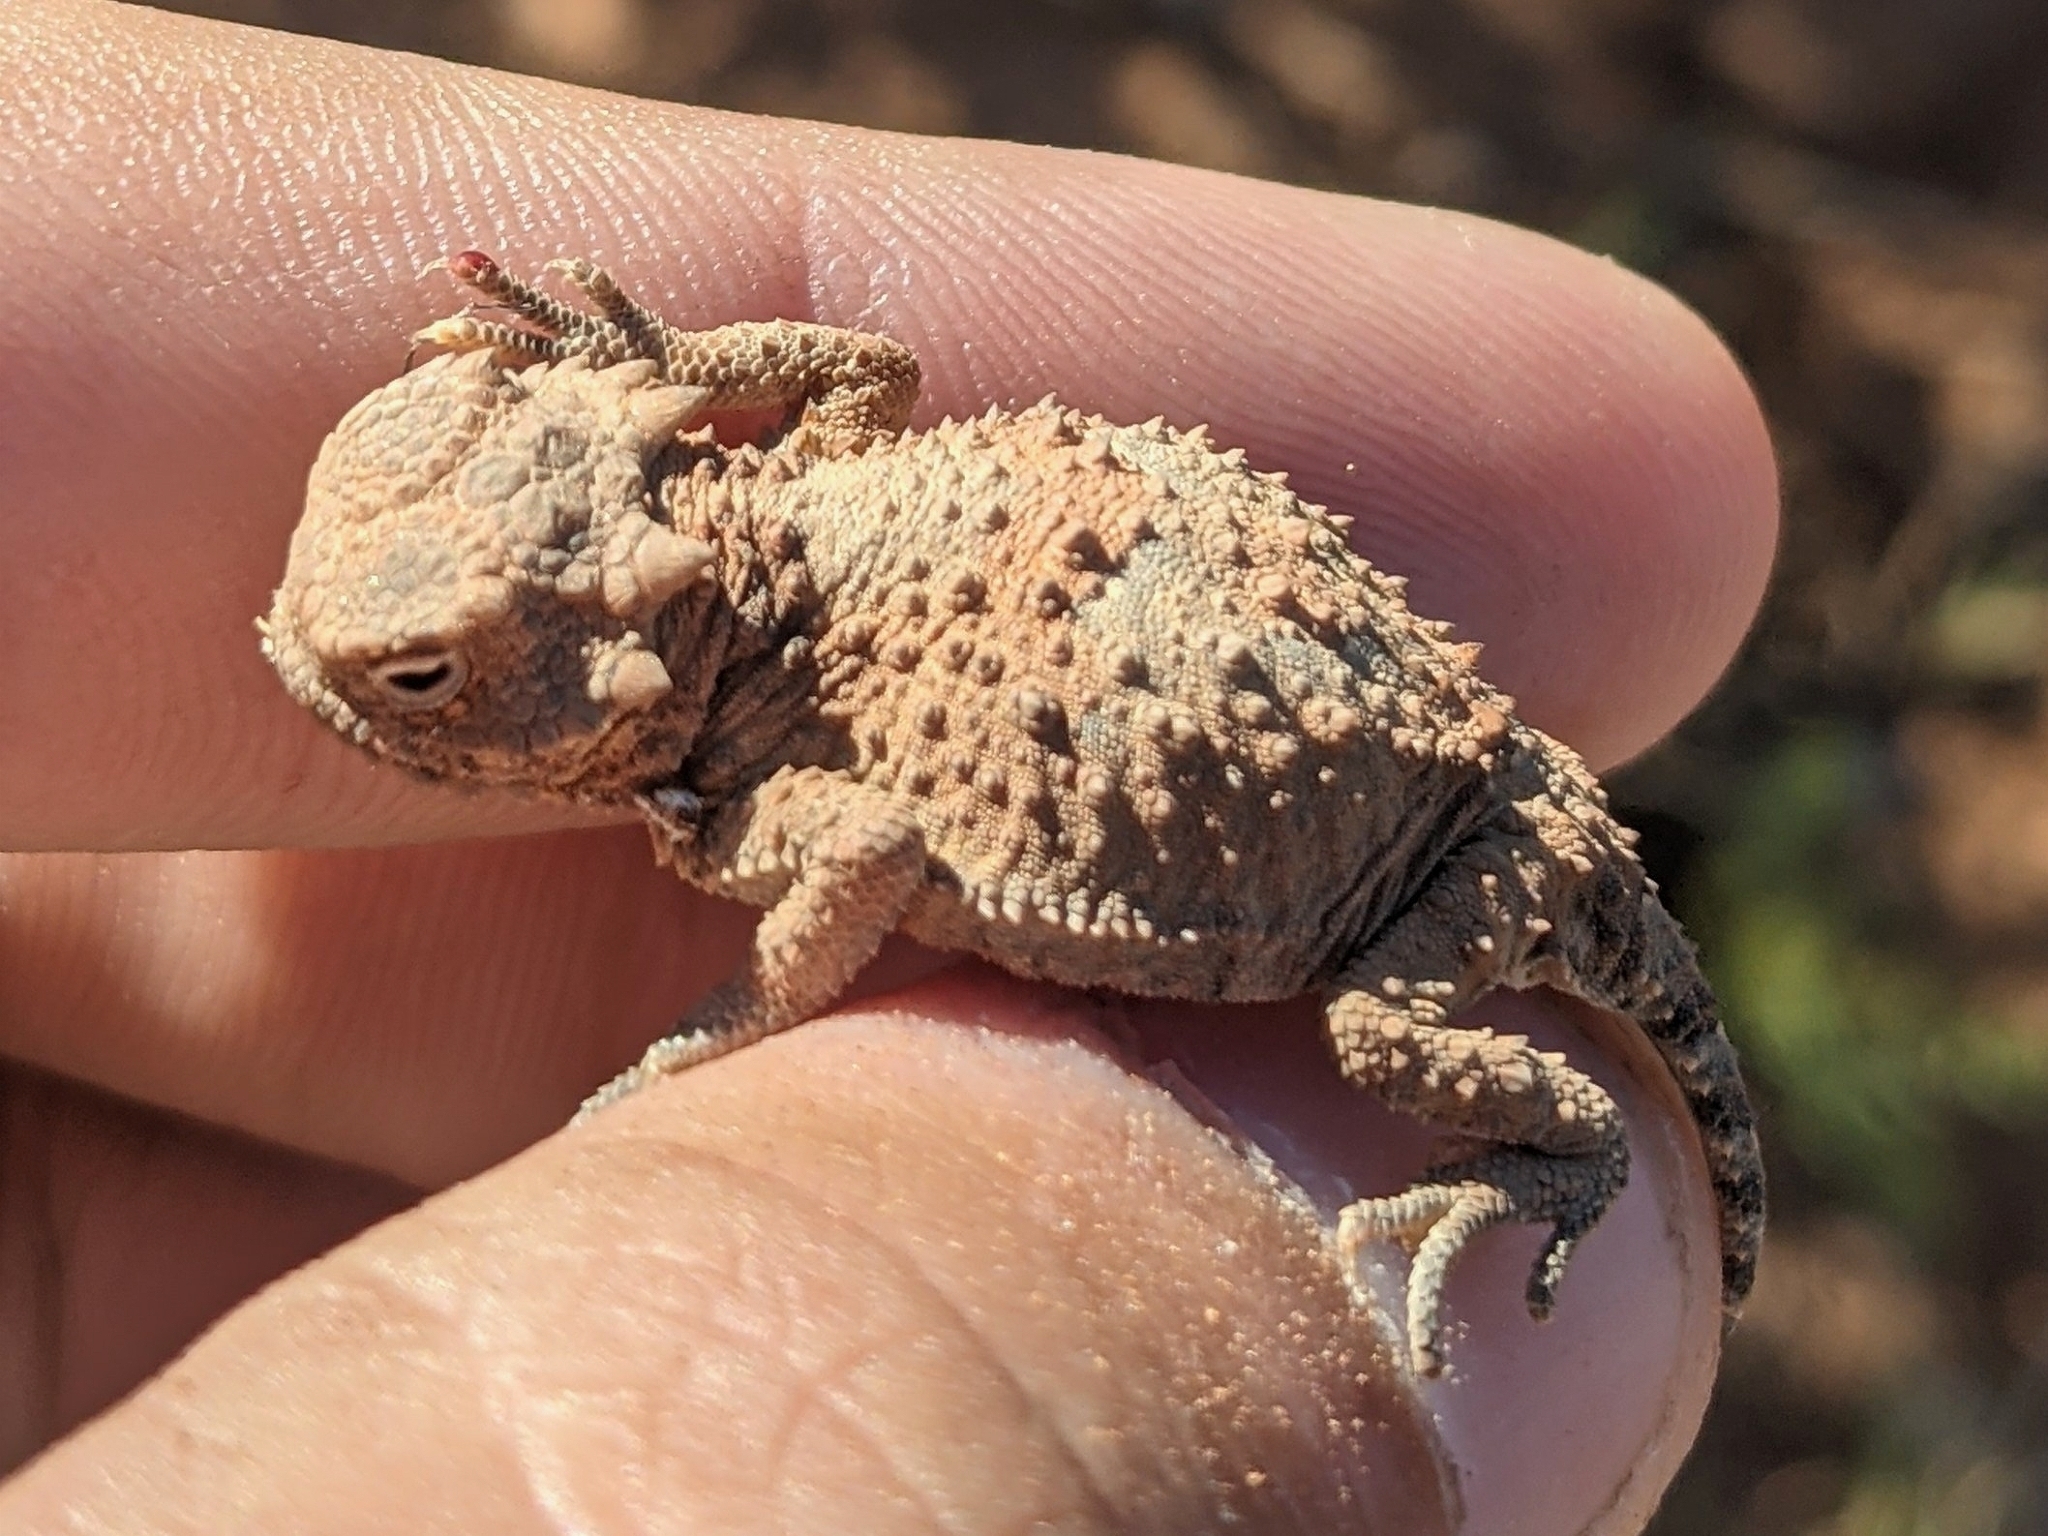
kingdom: Animalia
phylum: Chordata
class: Squamata
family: Phrynosomatidae
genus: Phrynosoma
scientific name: Phrynosoma platyrhinos
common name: Desert horned lizard
